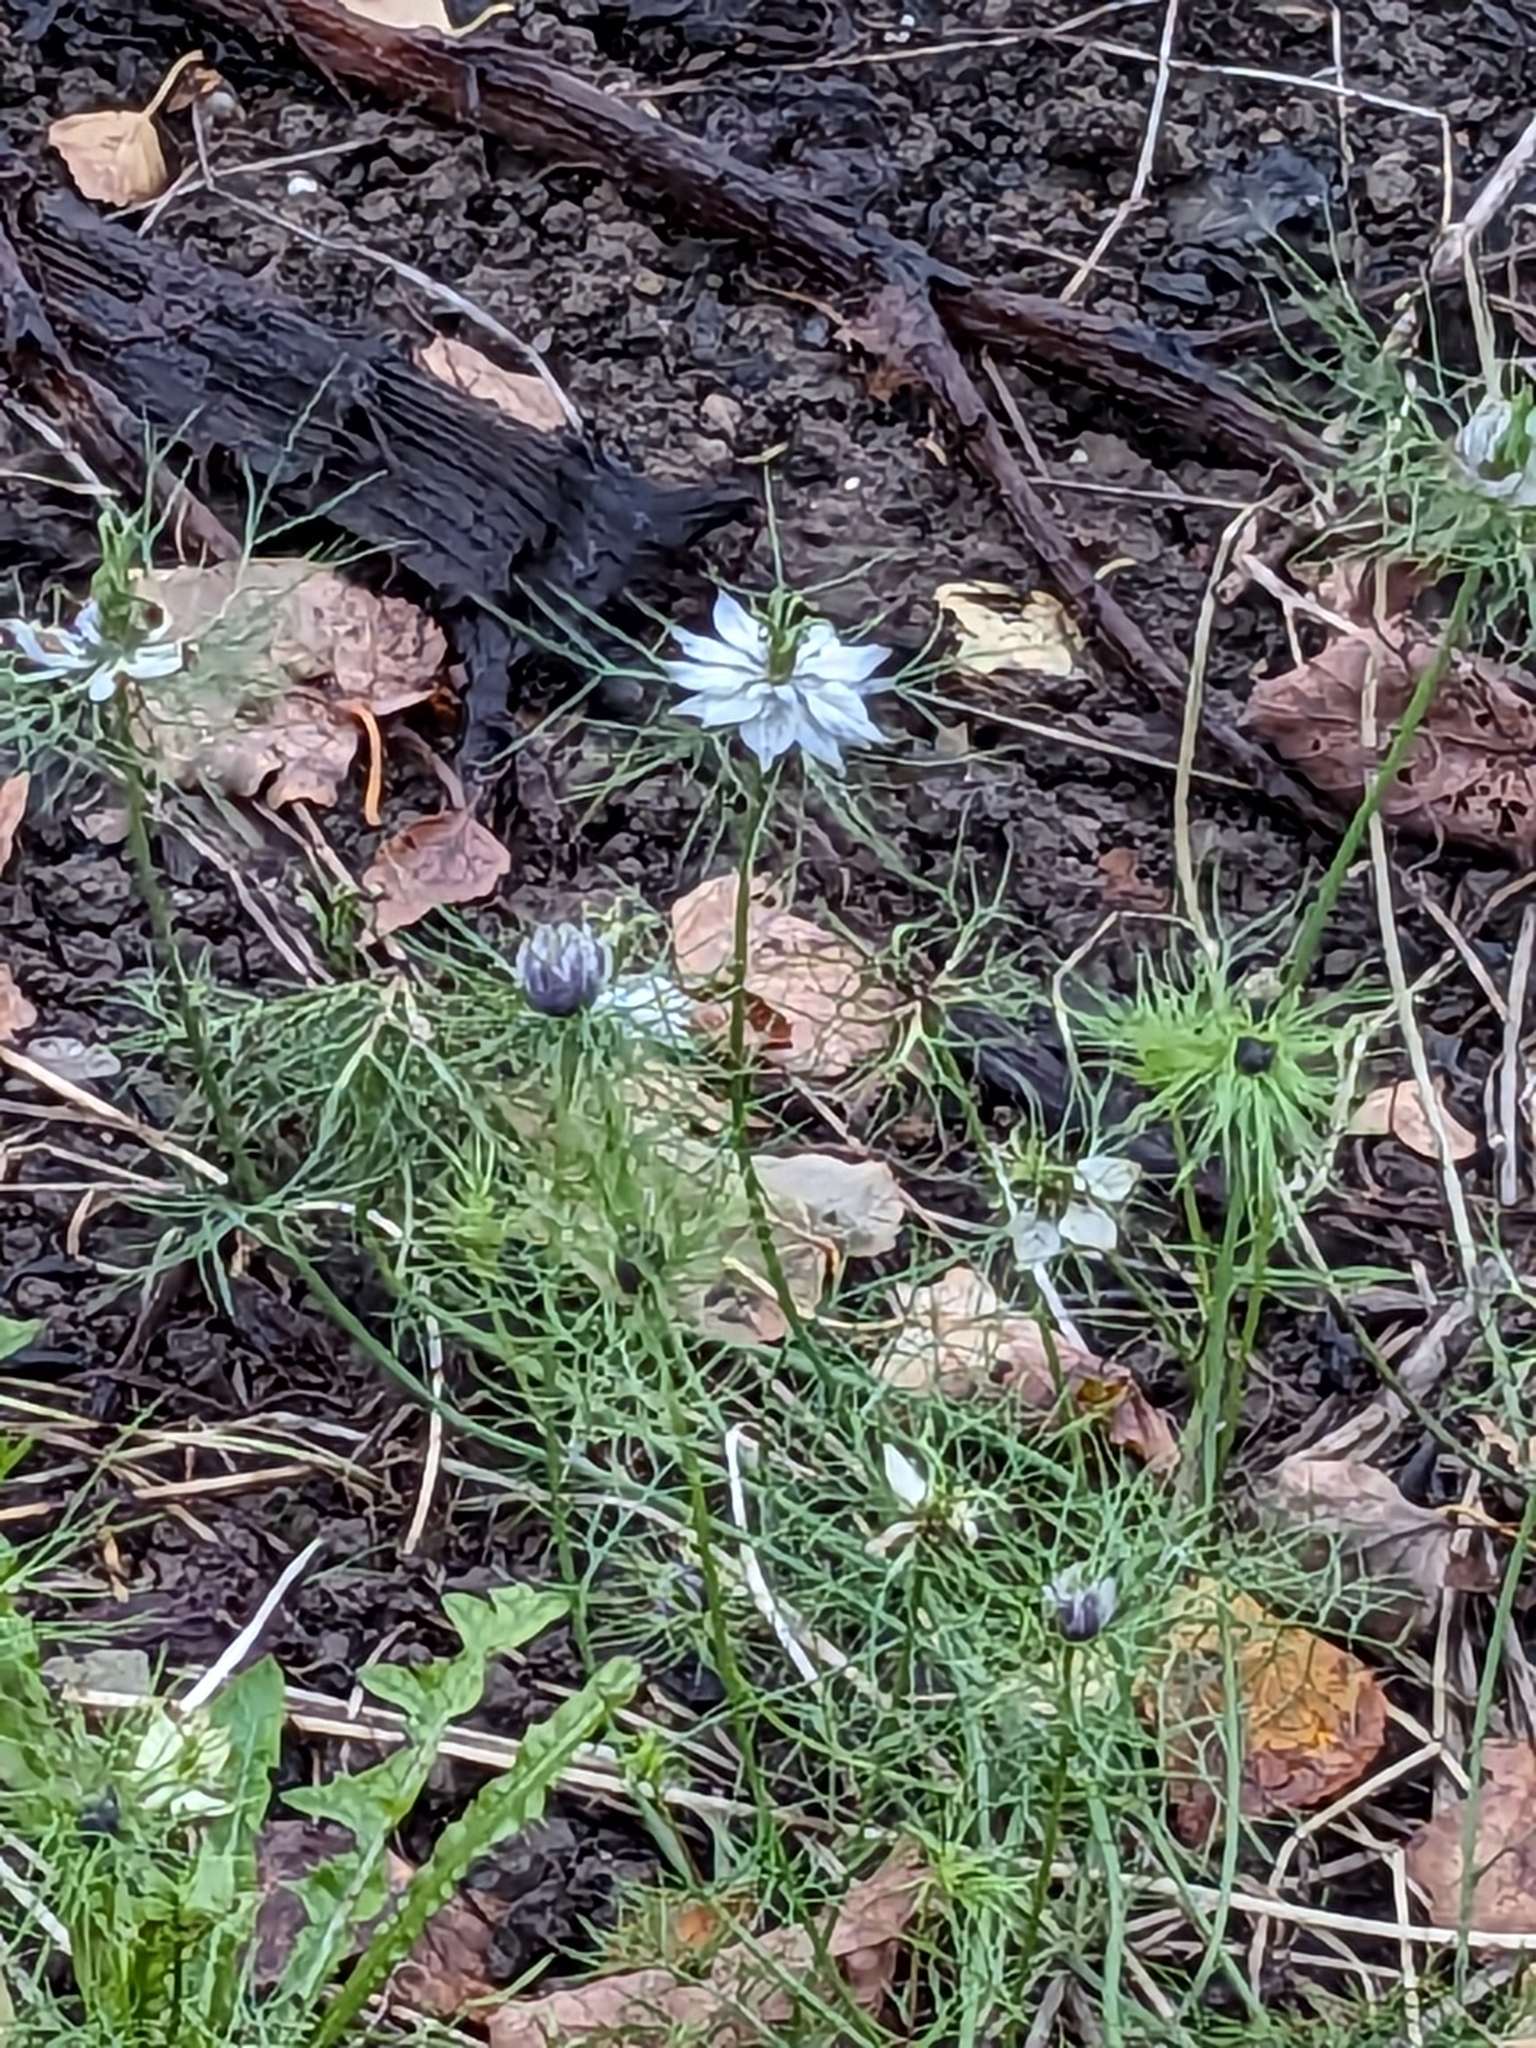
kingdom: Plantae
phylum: Tracheophyta
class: Magnoliopsida
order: Ranunculales
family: Ranunculaceae
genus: Nigella
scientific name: Nigella damascena
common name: Love-in-a-mist
